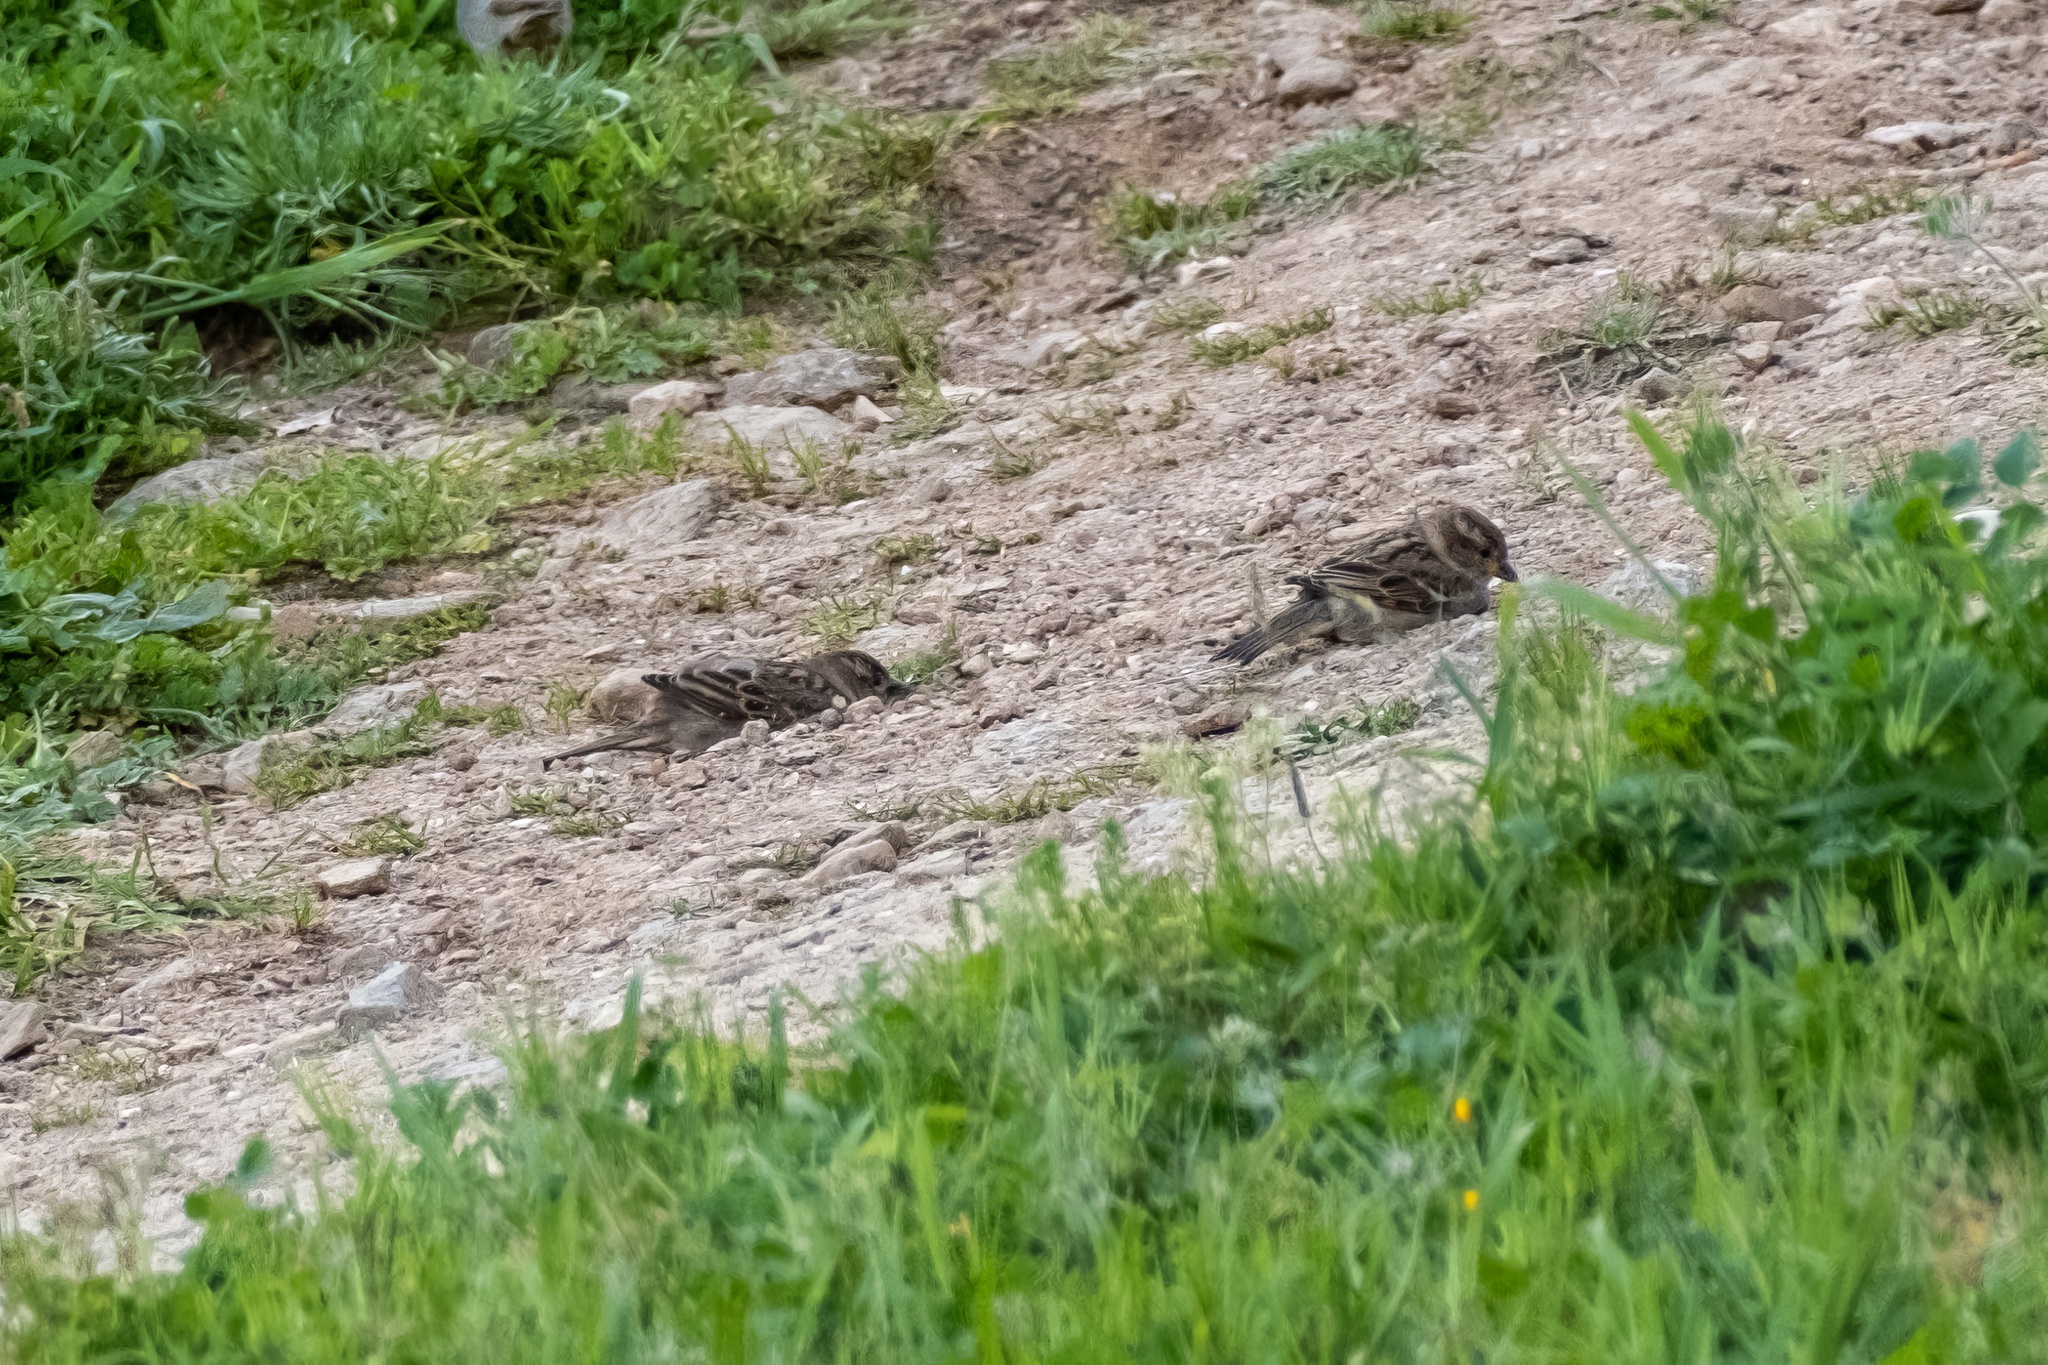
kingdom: Animalia
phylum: Chordata
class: Aves
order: Passeriformes
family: Passeridae
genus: Passer
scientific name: Passer domesticus
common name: House sparrow
